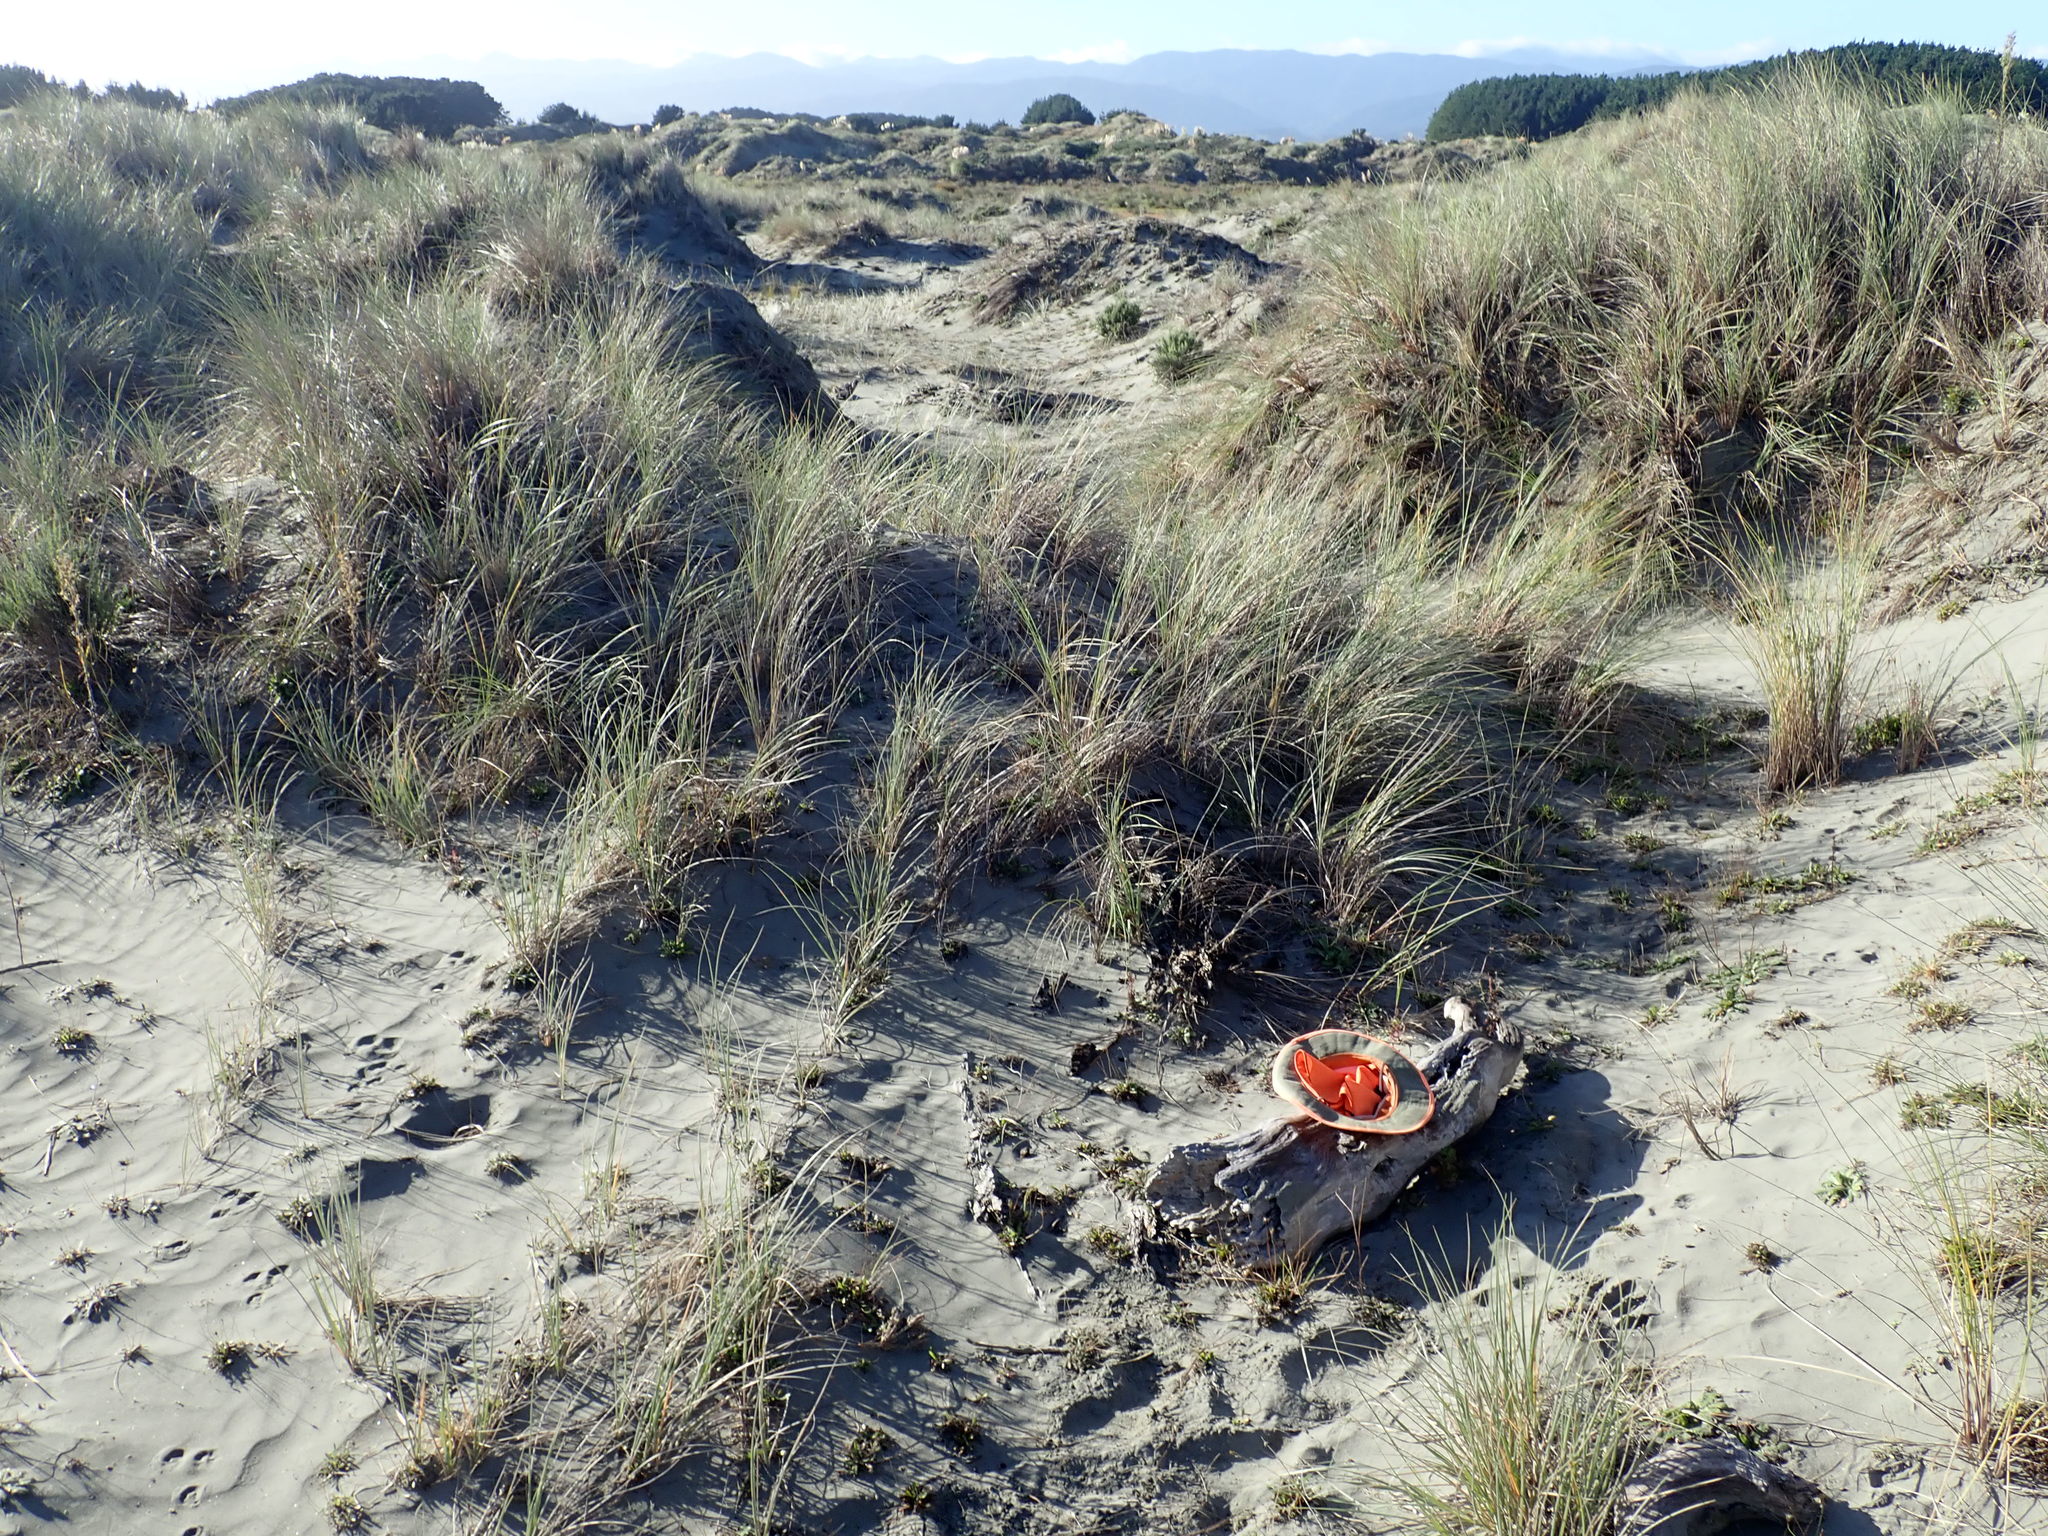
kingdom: Animalia
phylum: Arthropoda
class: Arachnida
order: Araneae
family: Theridiidae
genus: Steatoda
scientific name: Steatoda capensis
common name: Cobweb weaver
